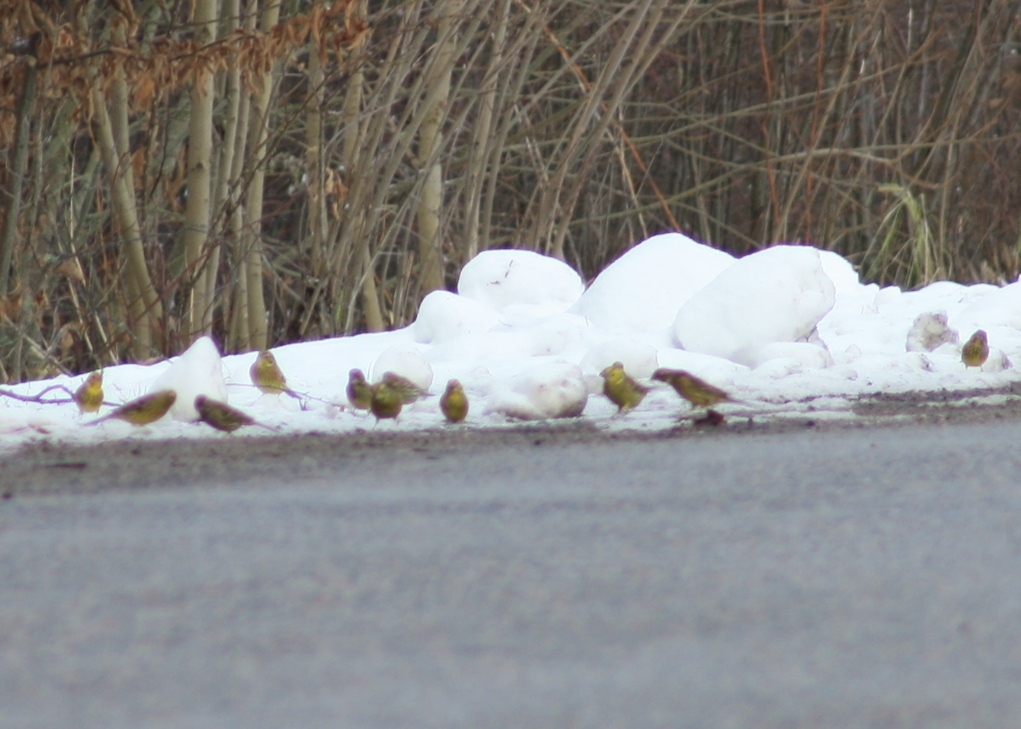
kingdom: Animalia
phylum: Chordata
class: Aves
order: Passeriformes
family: Emberizidae
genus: Emberiza
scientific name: Emberiza citrinella
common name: Yellowhammer
